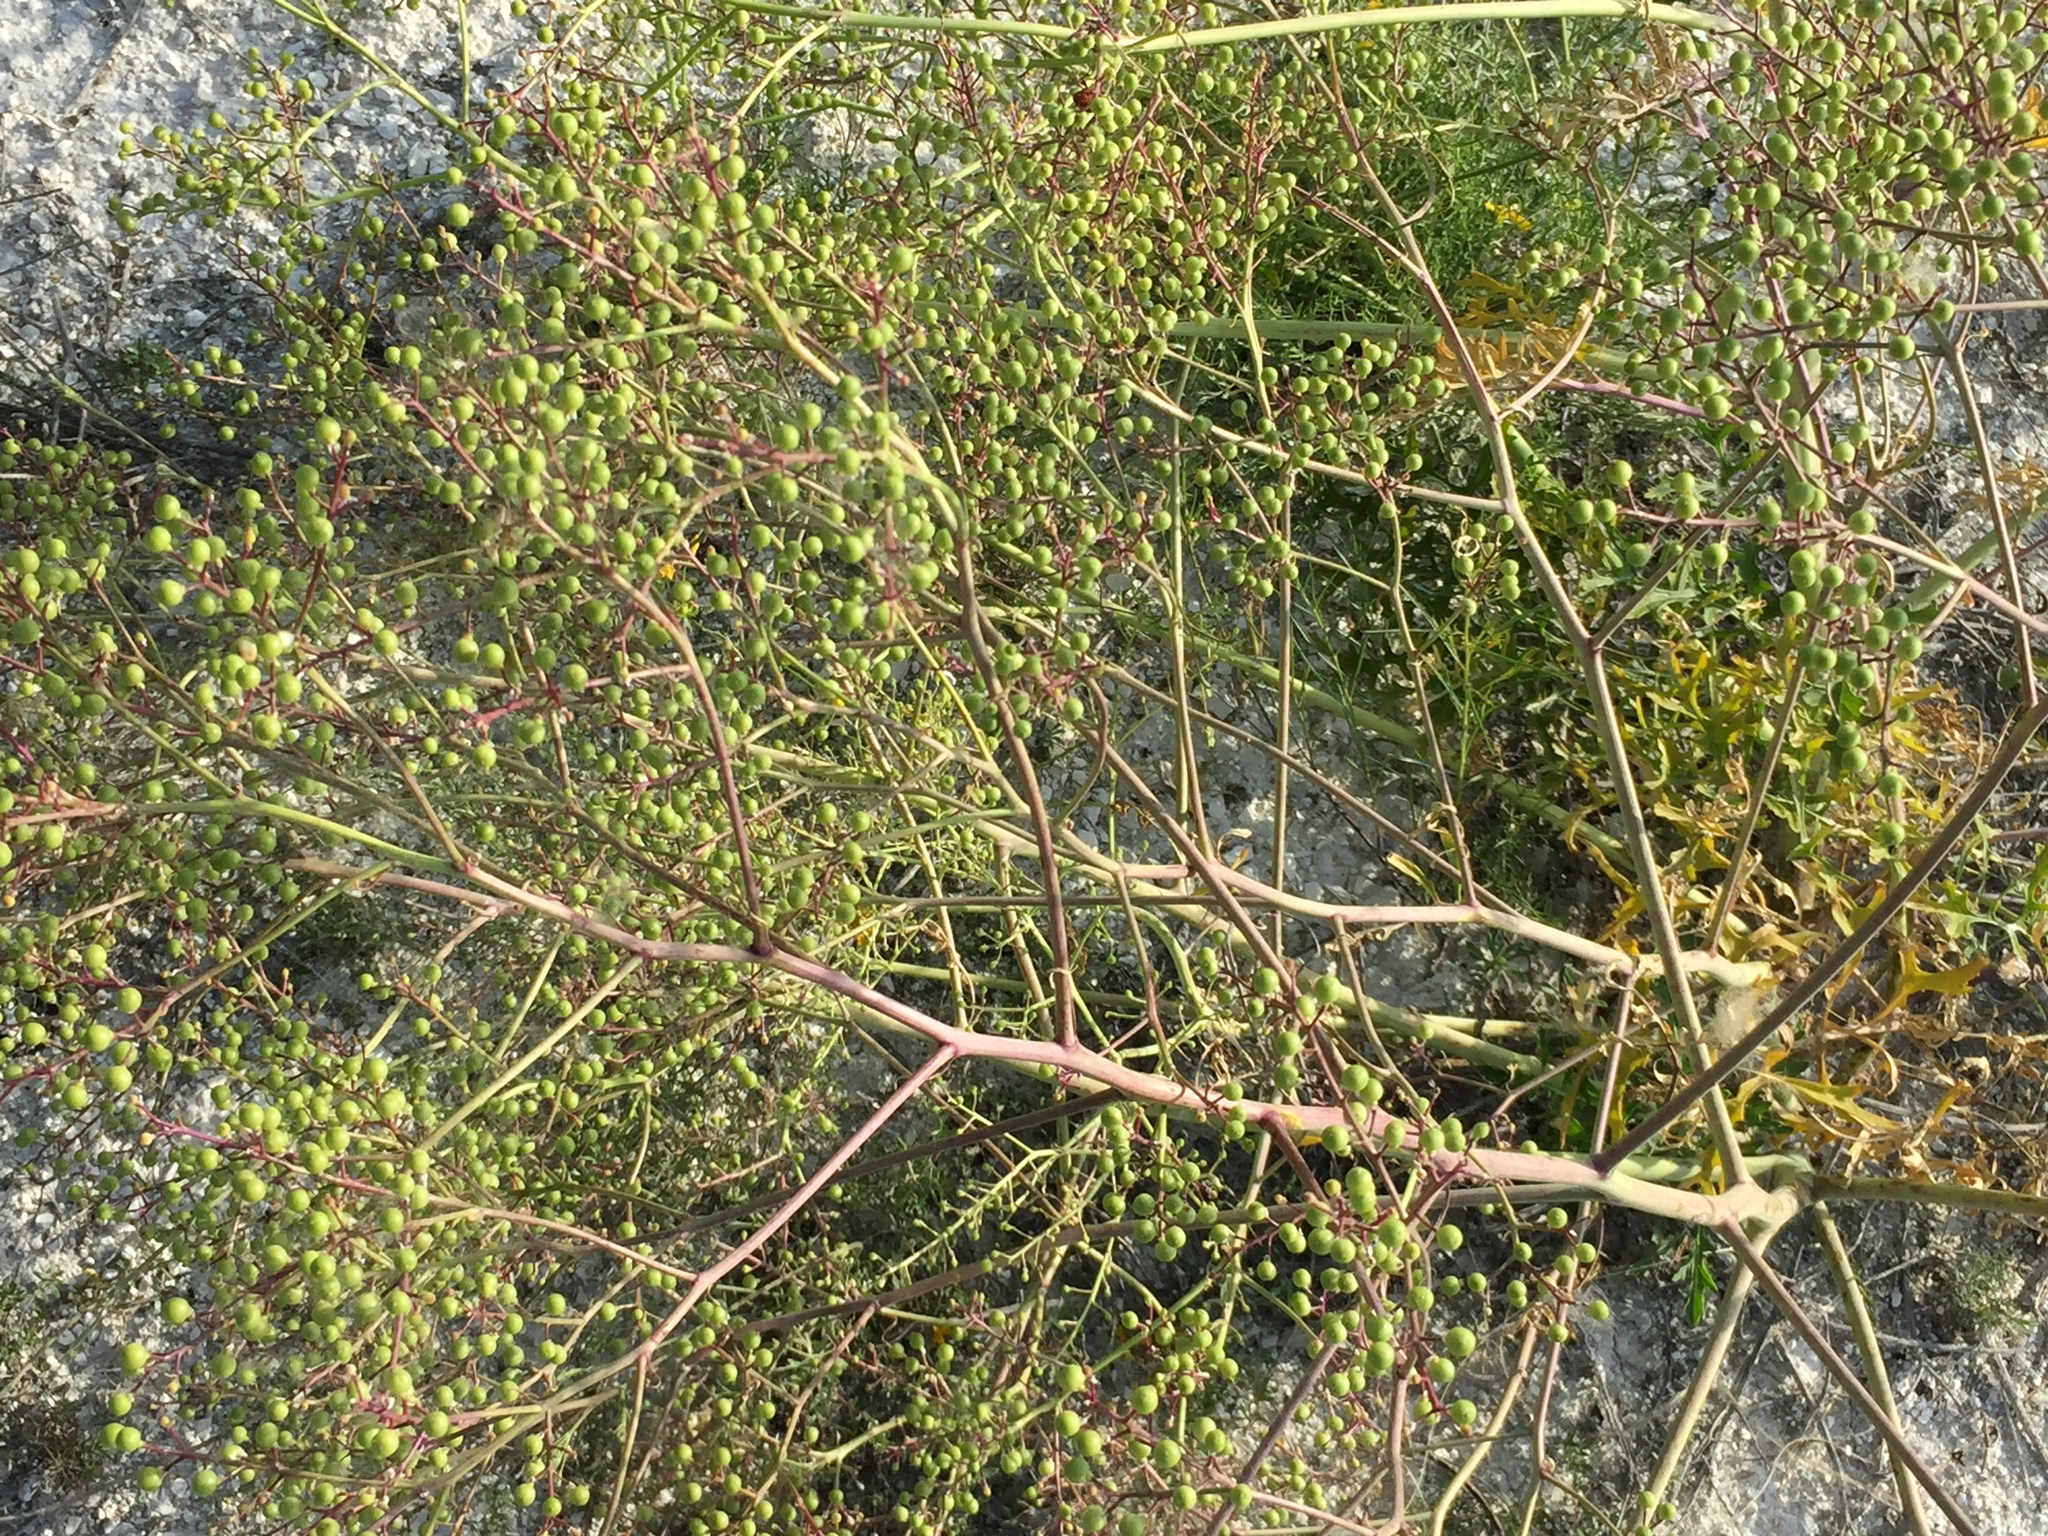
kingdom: Plantae
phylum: Tracheophyta
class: Magnoliopsida
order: Brassicales
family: Brassicaceae
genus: Crambe
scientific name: Crambe tataria
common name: Tartarian breadplant
